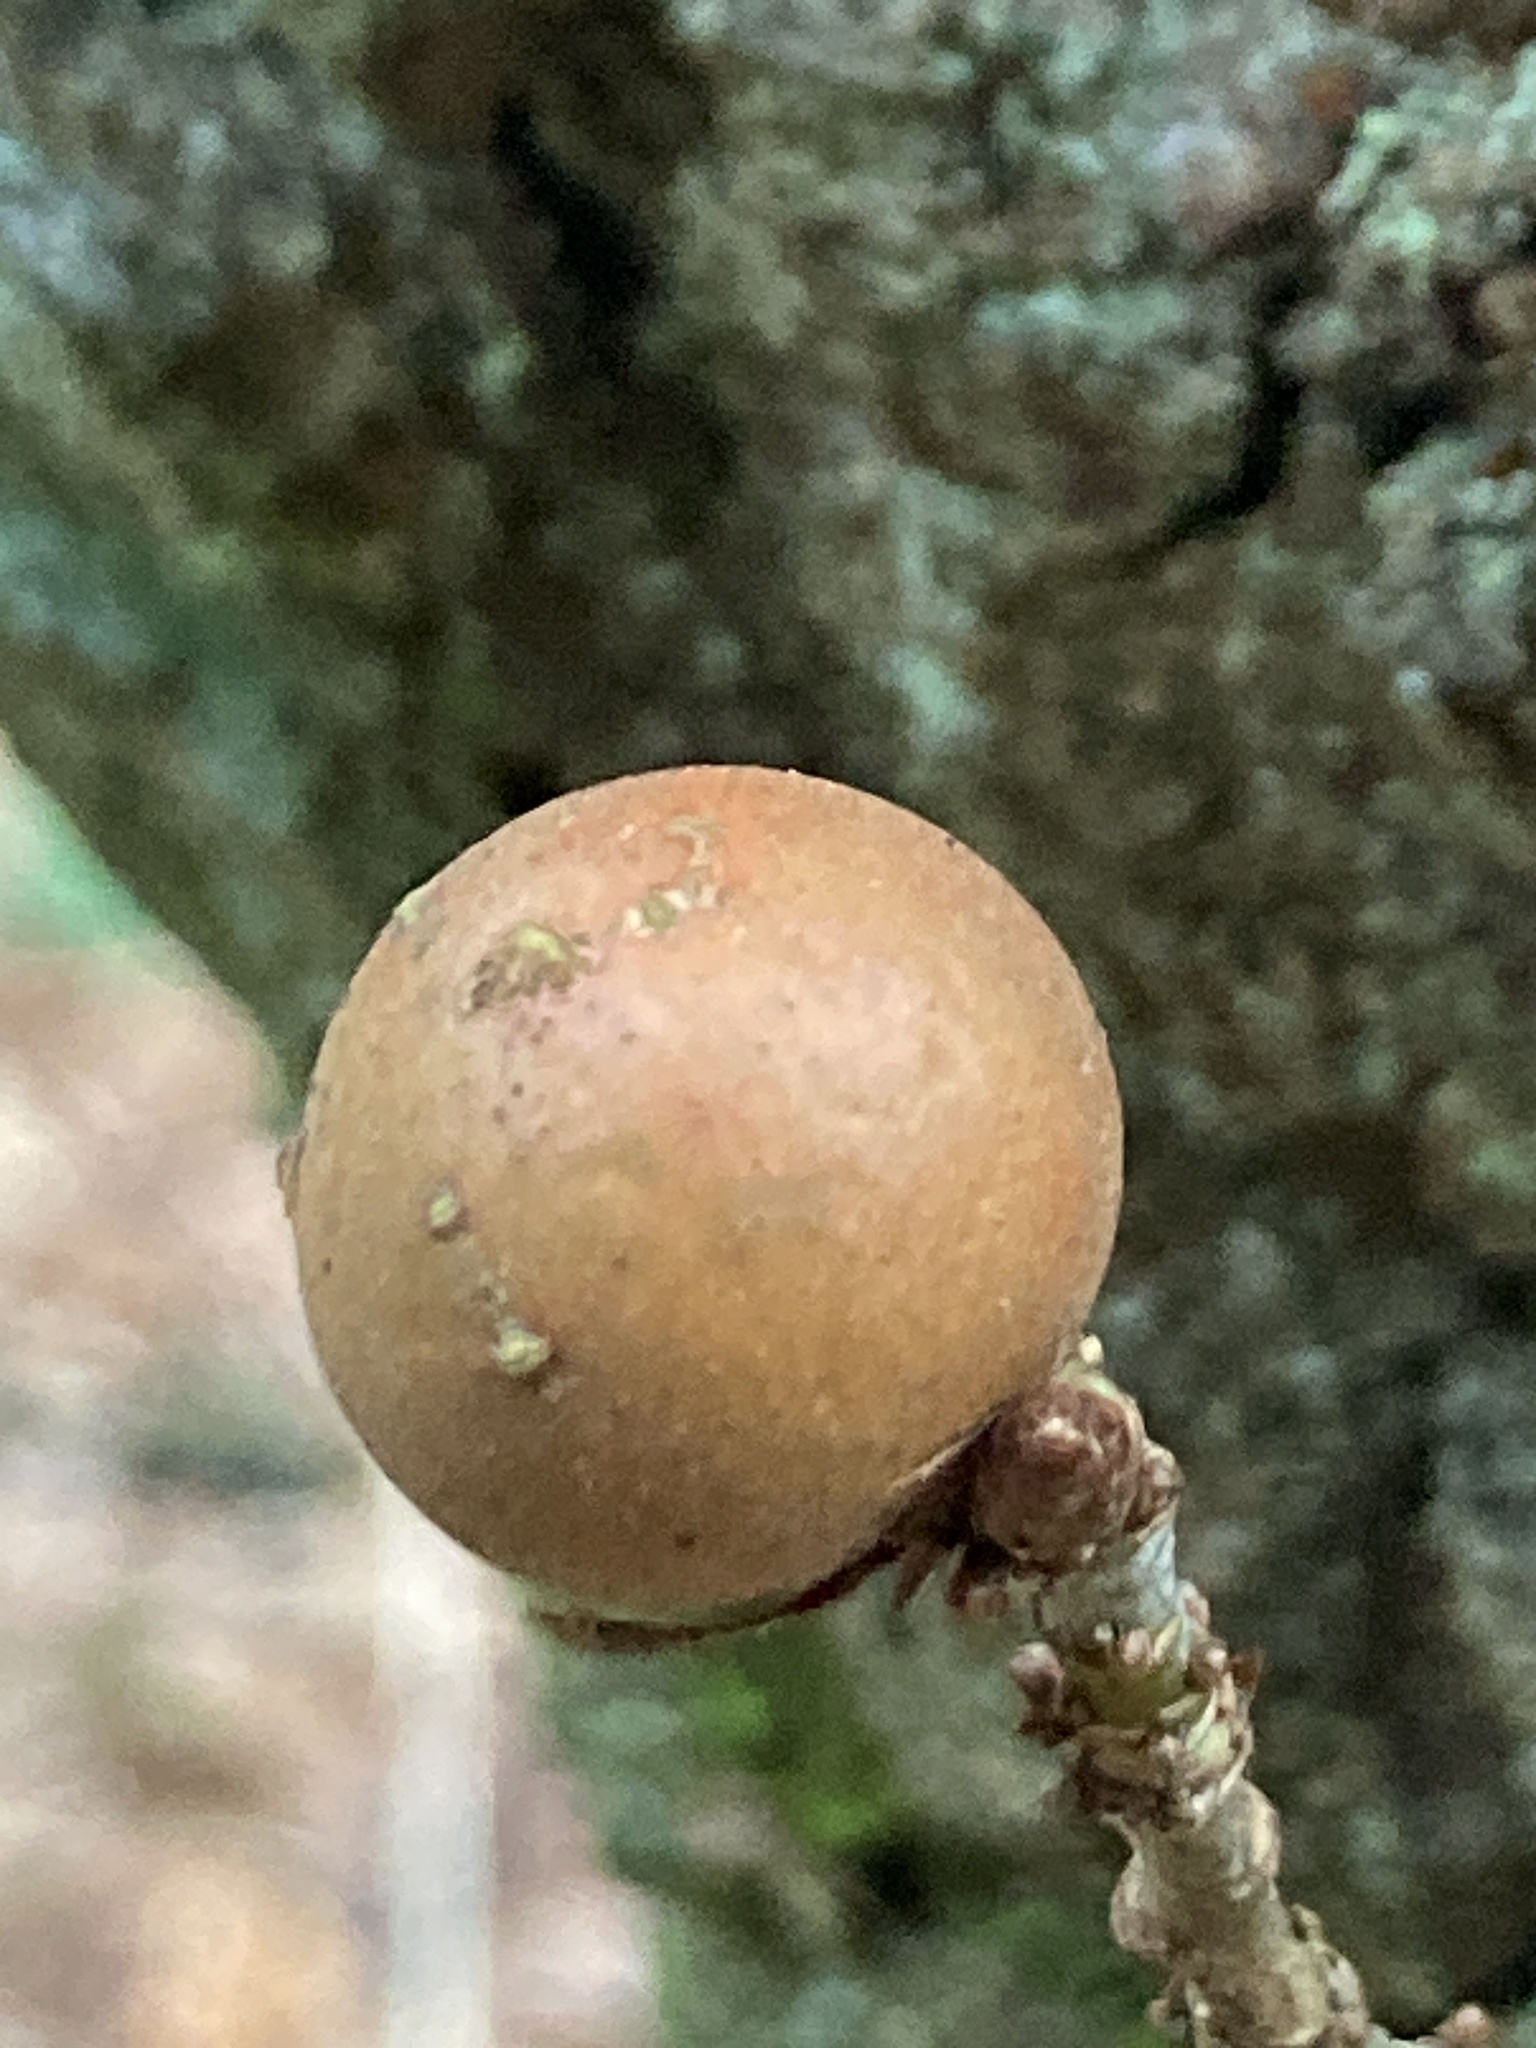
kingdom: Animalia
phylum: Arthropoda
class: Insecta
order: Hymenoptera
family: Cynipidae
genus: Andricus
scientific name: Andricus kollari
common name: Marble gall
